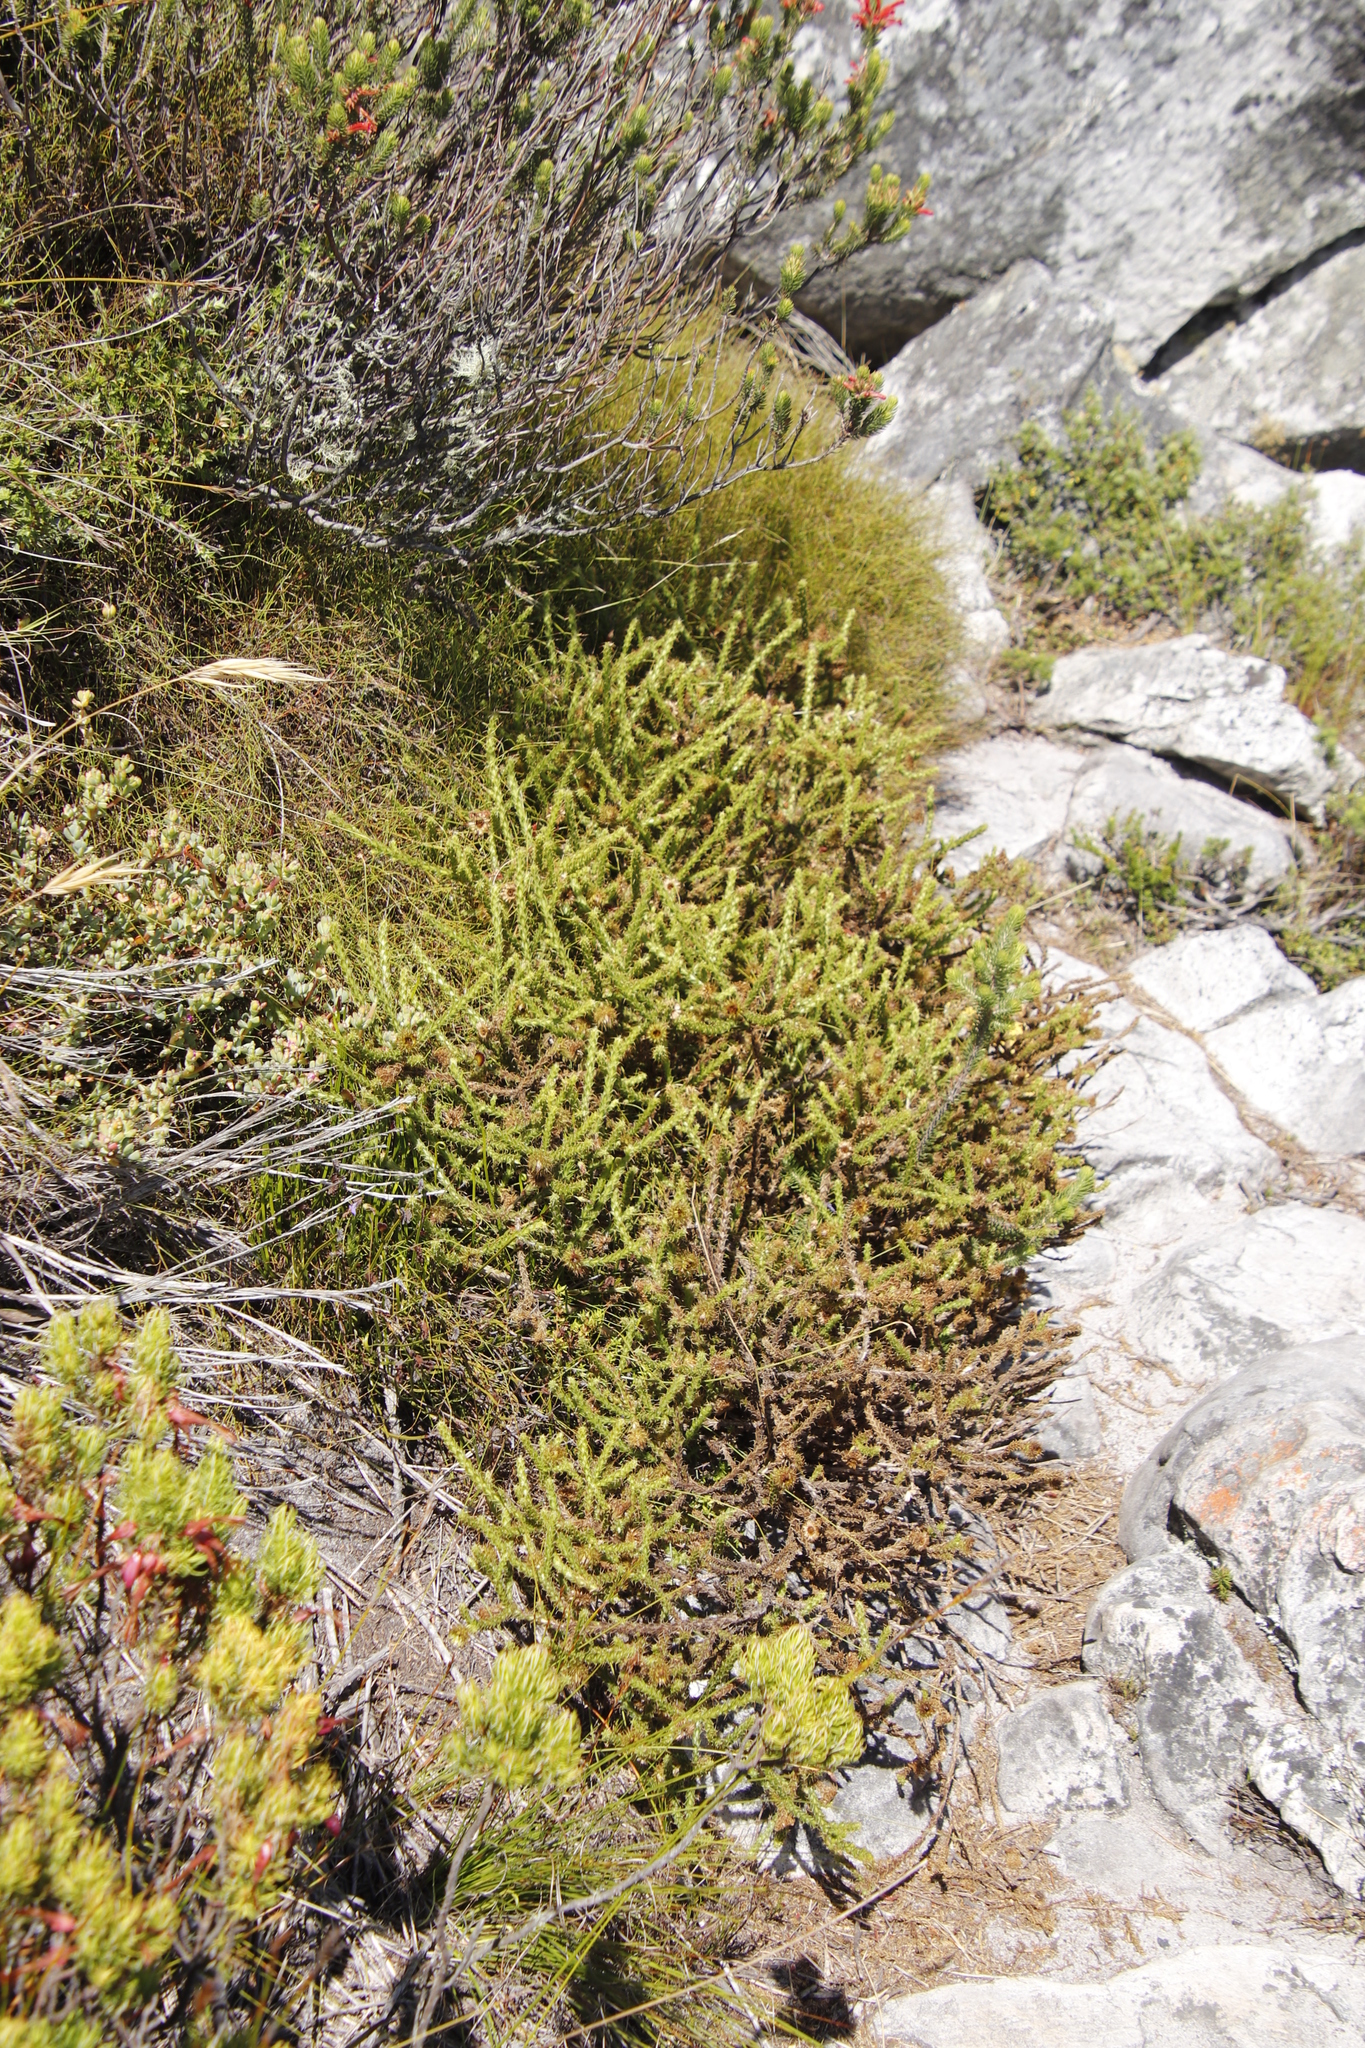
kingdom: Plantae
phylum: Tracheophyta
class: Magnoliopsida
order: Asterales
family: Asteraceae
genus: Cullumia
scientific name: Cullumia reticulata
